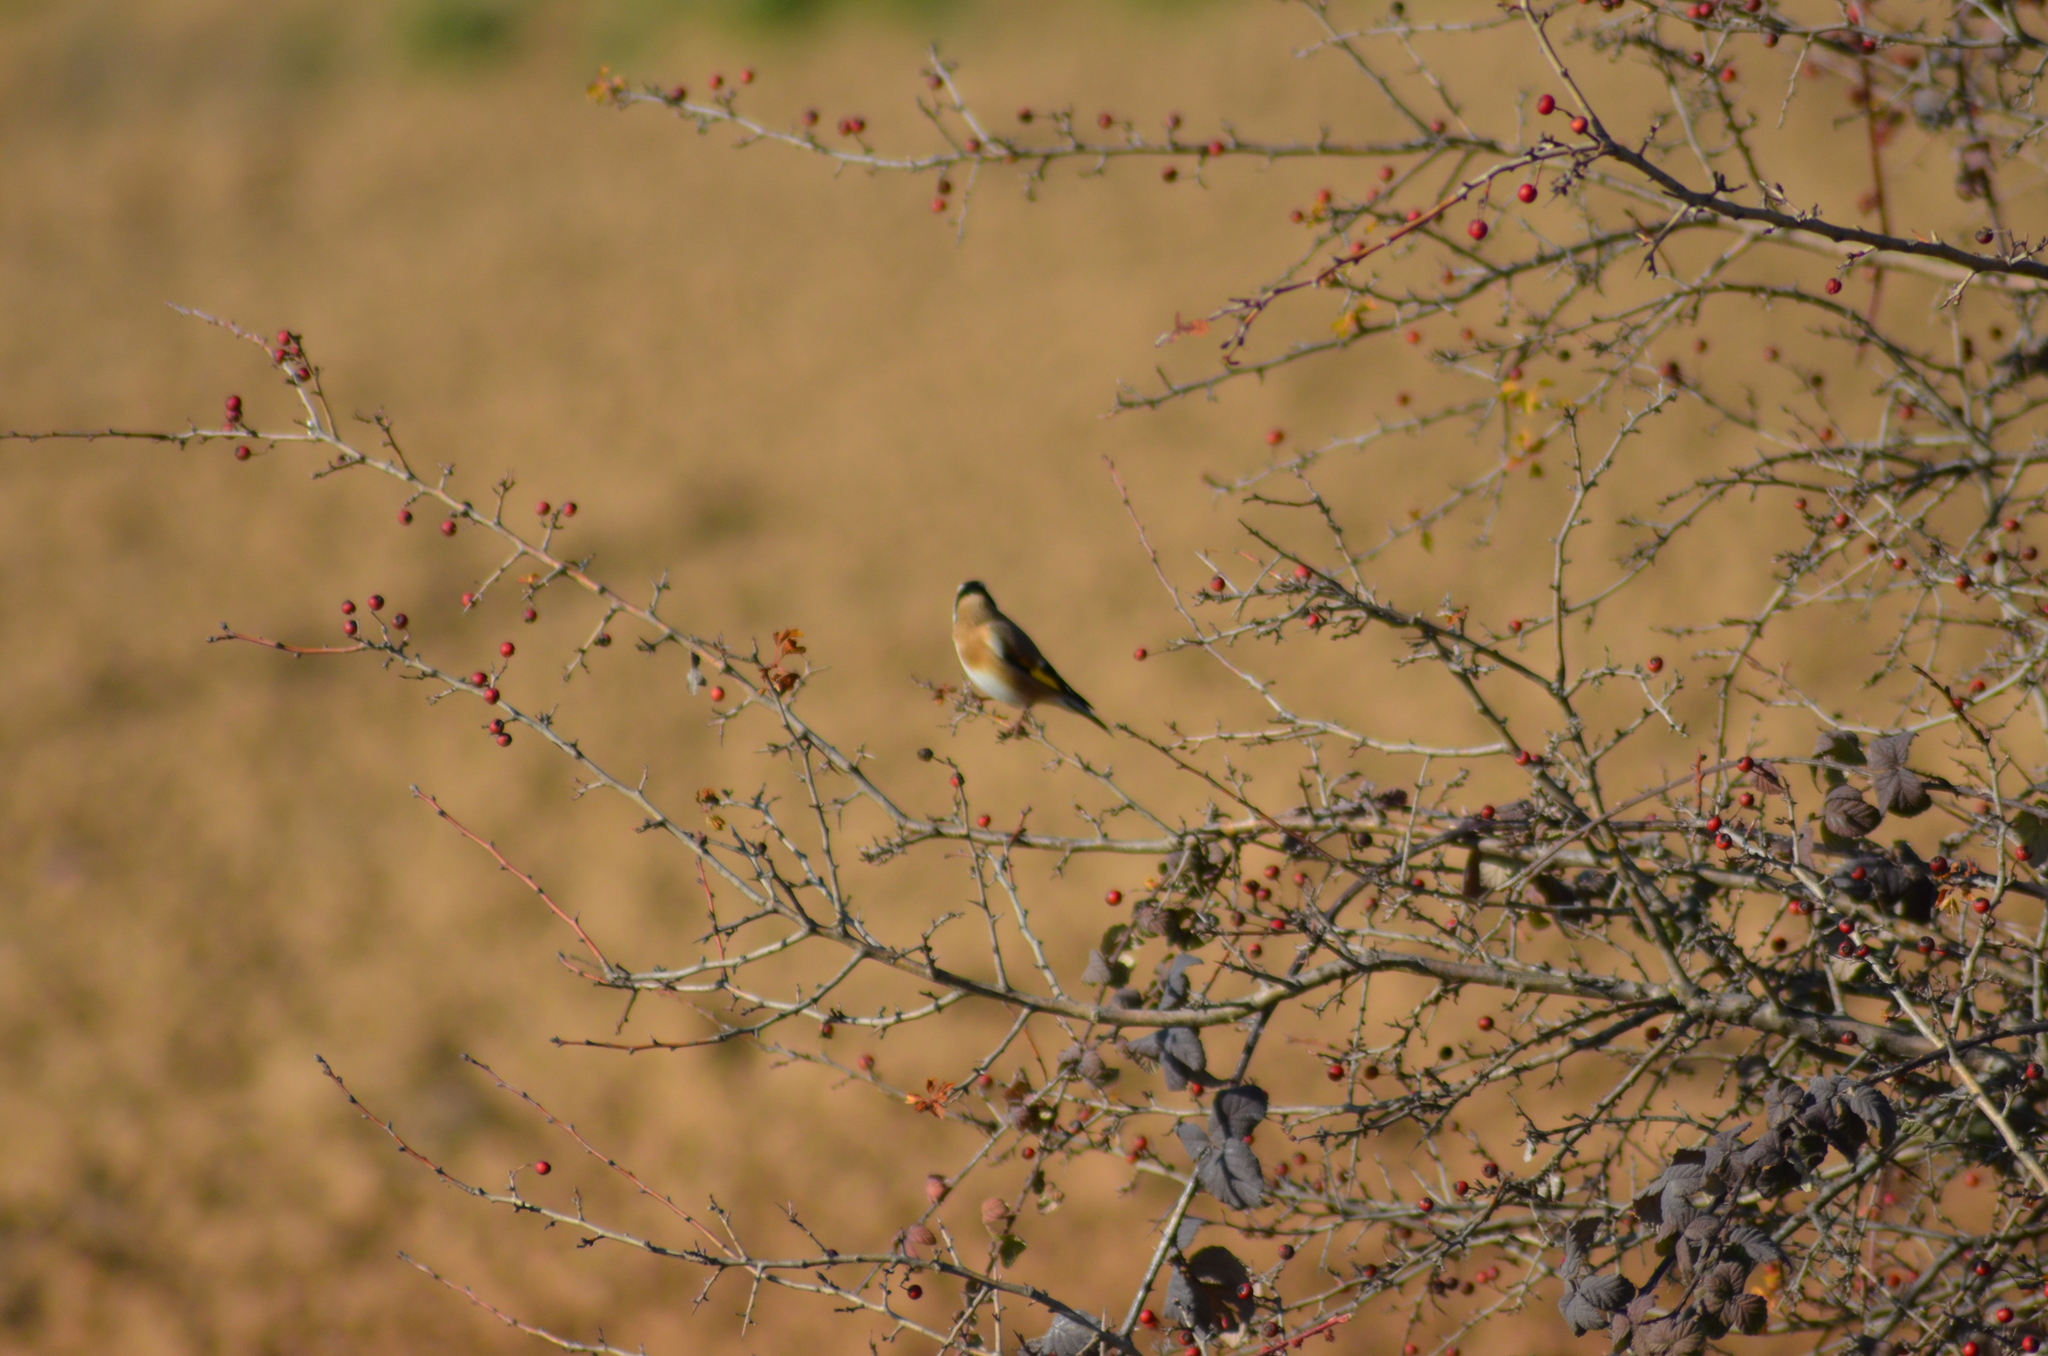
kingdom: Animalia
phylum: Chordata
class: Aves
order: Passeriformes
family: Fringillidae
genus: Carduelis
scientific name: Carduelis carduelis
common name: European goldfinch
